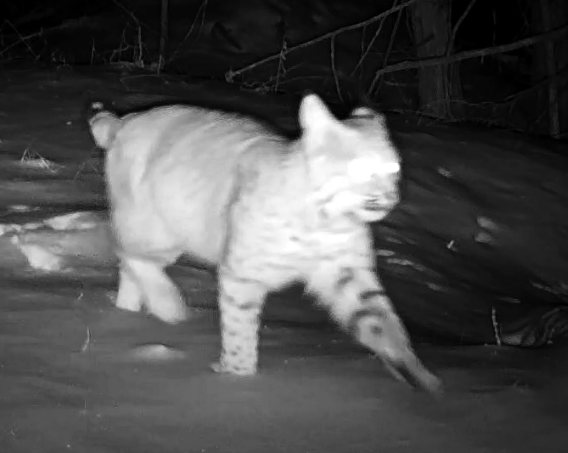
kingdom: Animalia
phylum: Chordata
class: Mammalia
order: Carnivora
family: Felidae
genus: Lynx
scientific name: Lynx rufus
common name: Bobcat
